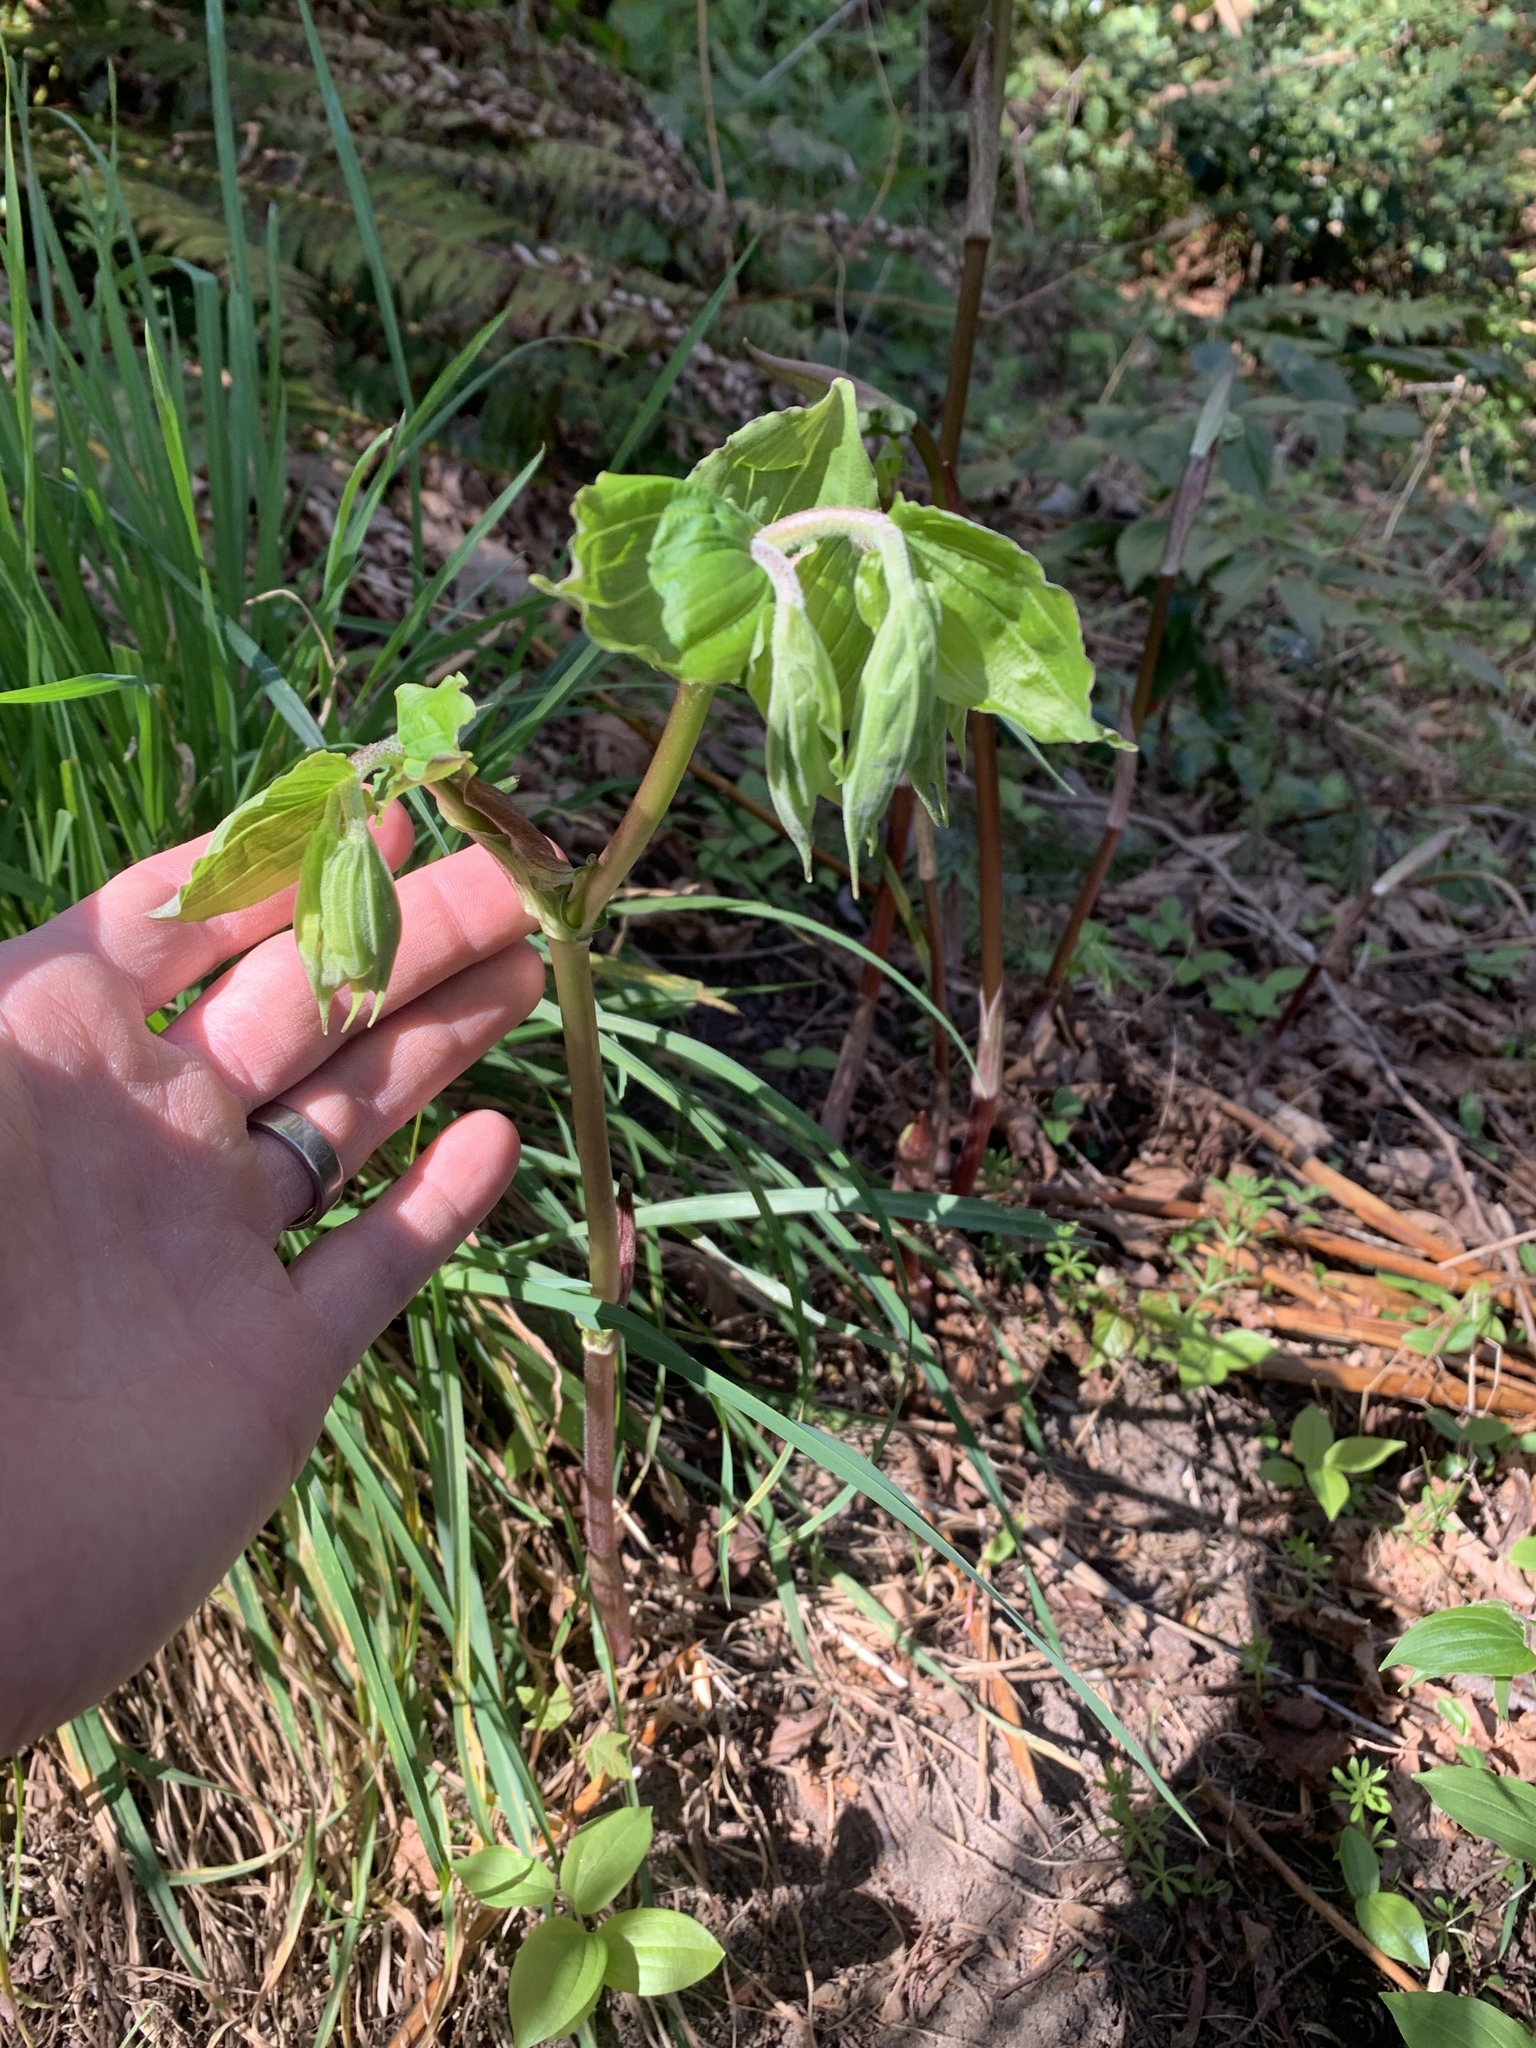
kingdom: Plantae
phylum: Tracheophyta
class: Liliopsida
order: Liliales
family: Liliaceae
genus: Prosartes
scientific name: Prosartes hookeri
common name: Fairy-bells
